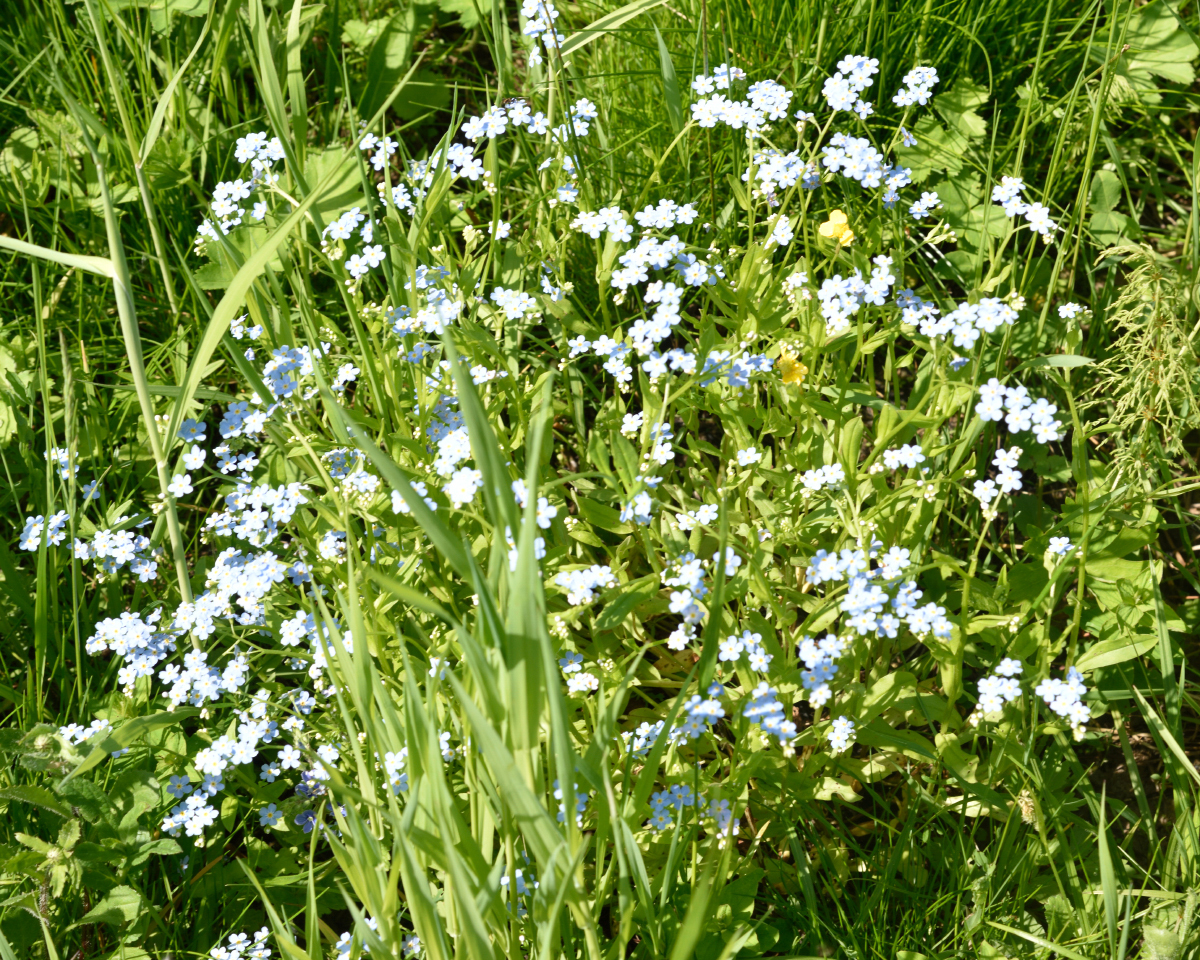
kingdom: Plantae
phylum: Tracheophyta
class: Magnoliopsida
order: Boraginales
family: Boraginaceae
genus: Myosotis
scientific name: Myosotis scorpioides
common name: Water forget-me-not
